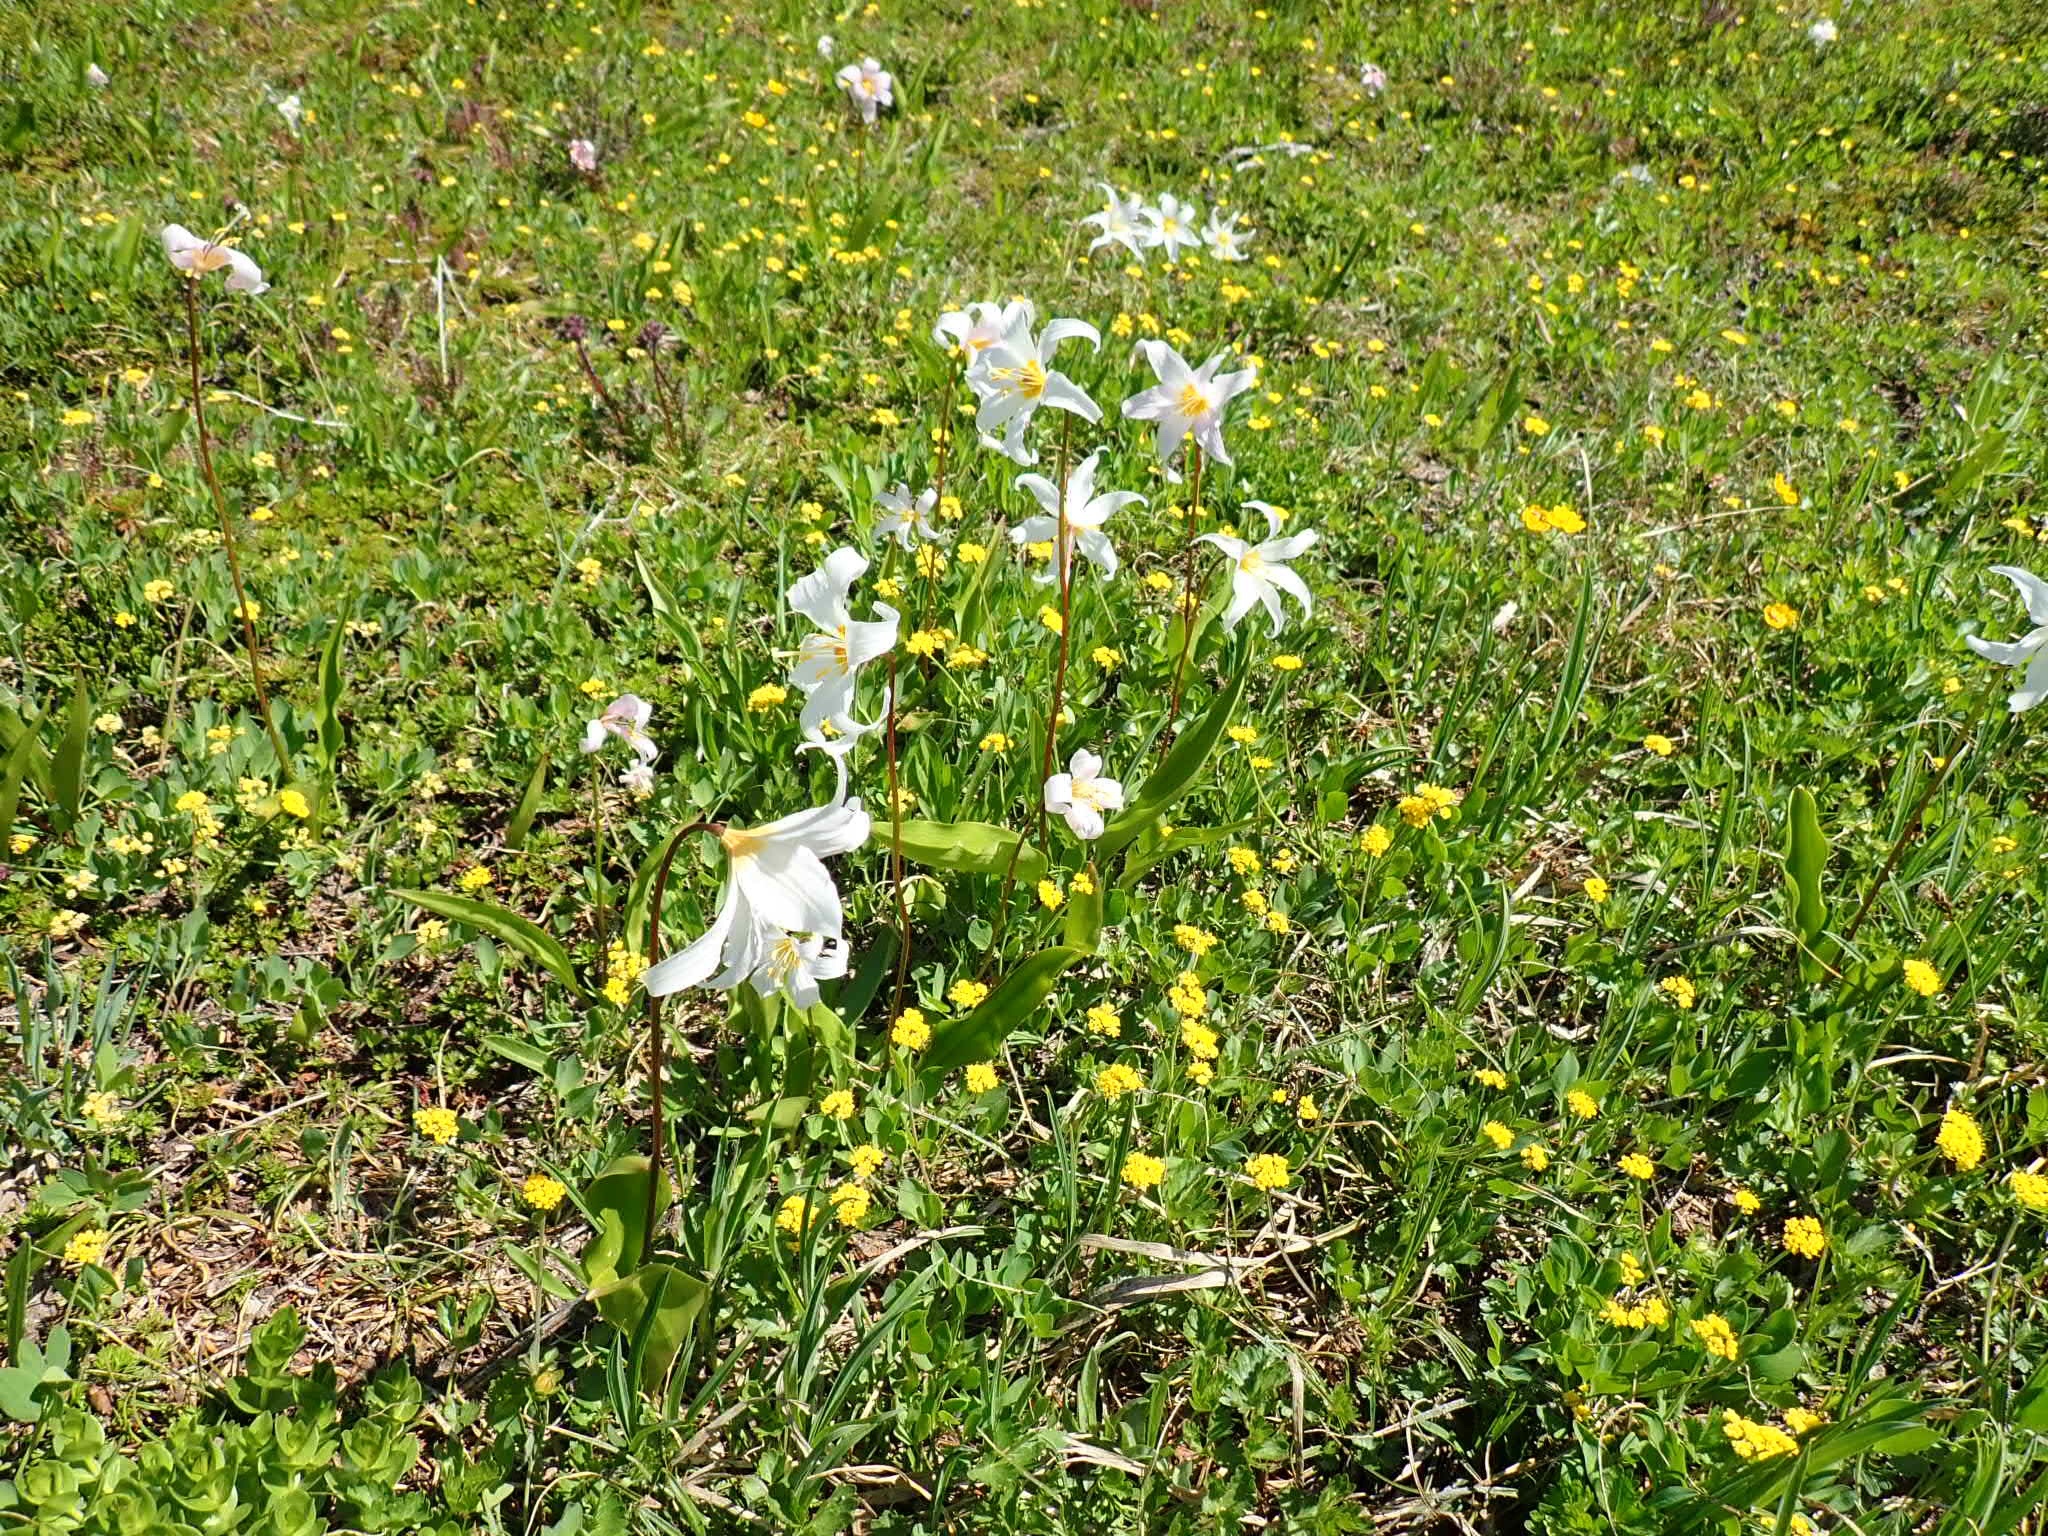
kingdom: Plantae
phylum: Tracheophyta
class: Liliopsida
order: Liliales
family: Liliaceae
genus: Erythronium
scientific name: Erythronium montanum
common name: Avalanche lily
